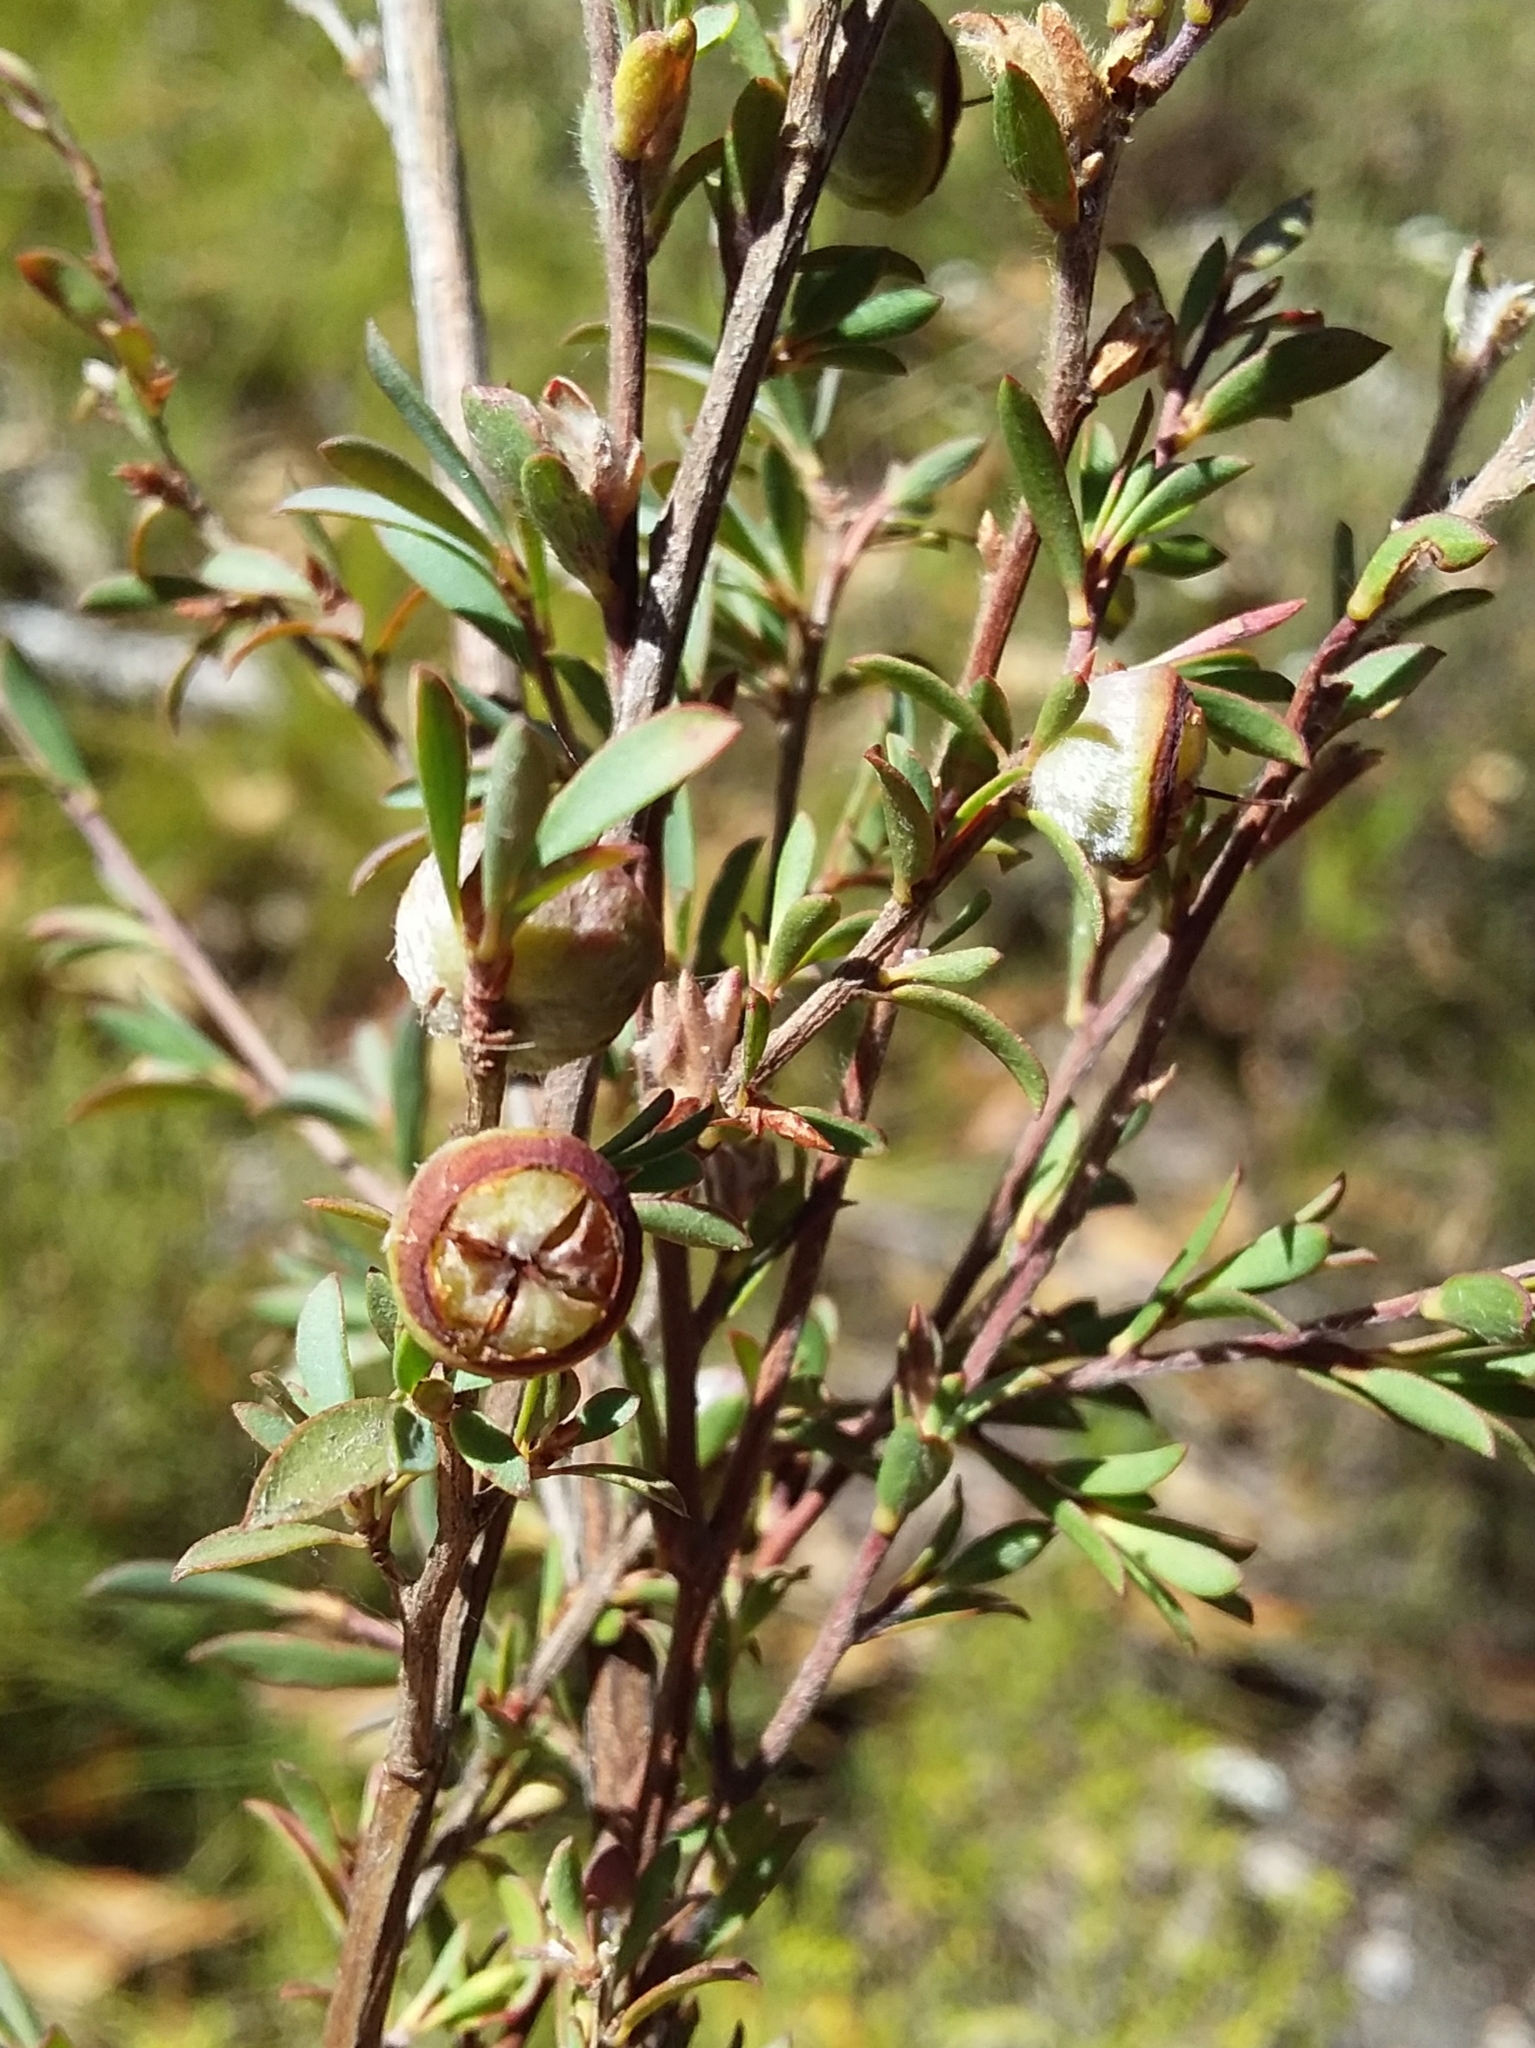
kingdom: Plantae
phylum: Tracheophyta
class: Magnoliopsida
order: Myrtales
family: Myrtaceae
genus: Leptospermum
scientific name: Leptospermum myrsinoides
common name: Heath teatree
